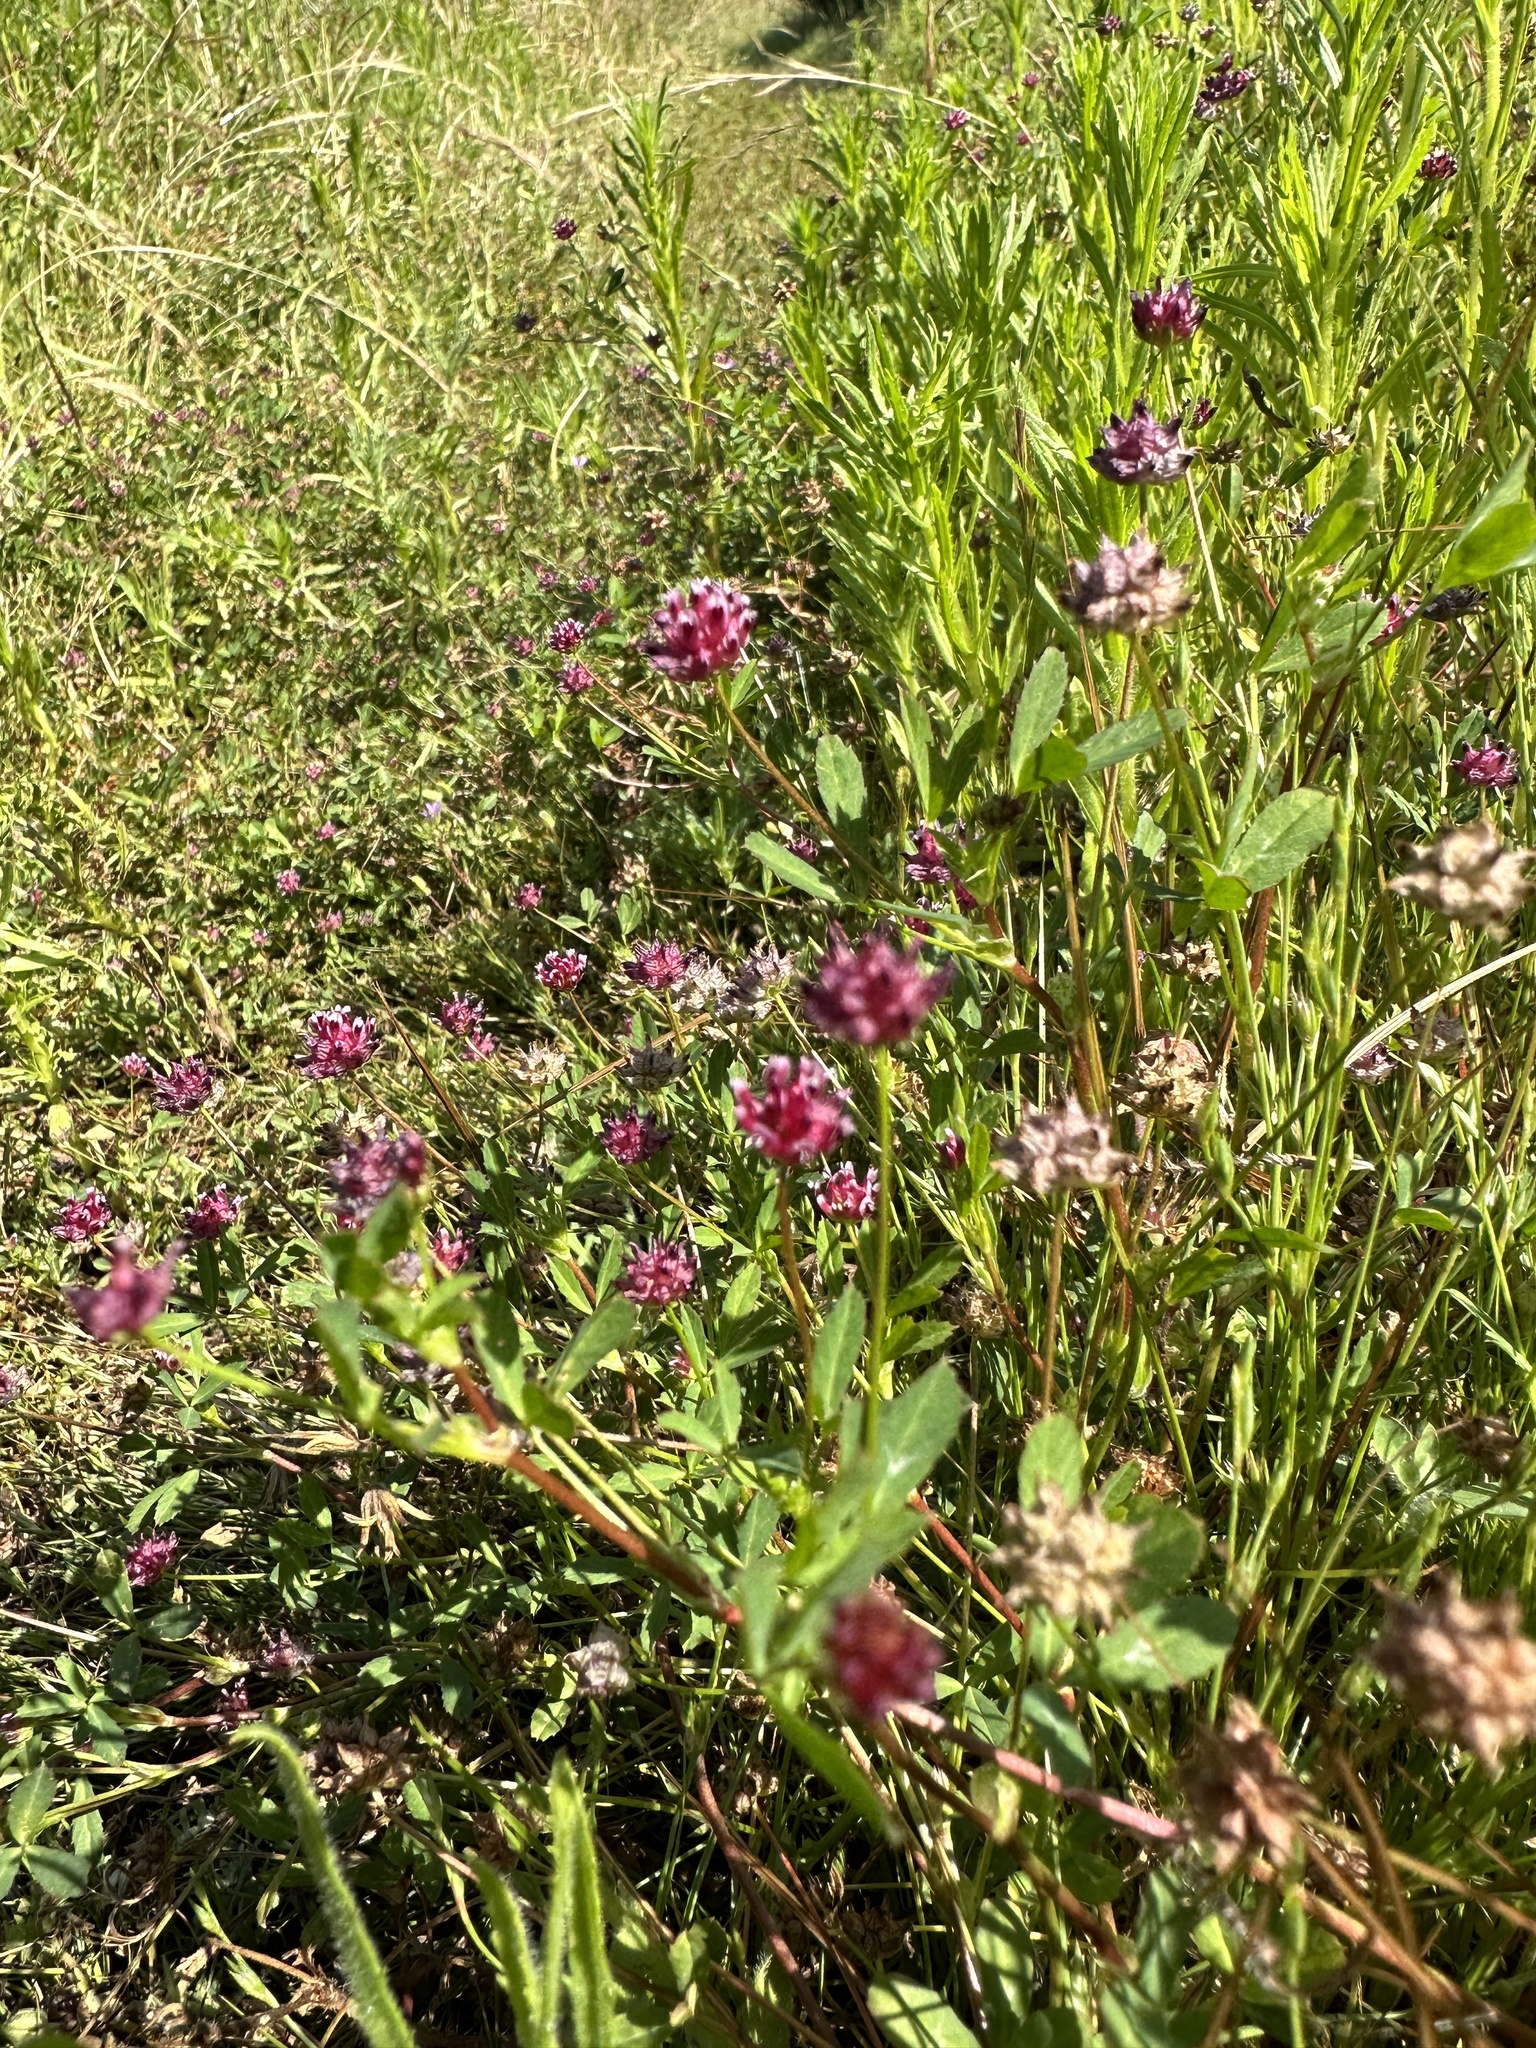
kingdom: Plantae
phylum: Tracheophyta
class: Magnoliopsida
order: Fabales
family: Fabaceae
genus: Trifolium
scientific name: Trifolium depauperatum
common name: Poverty clover
